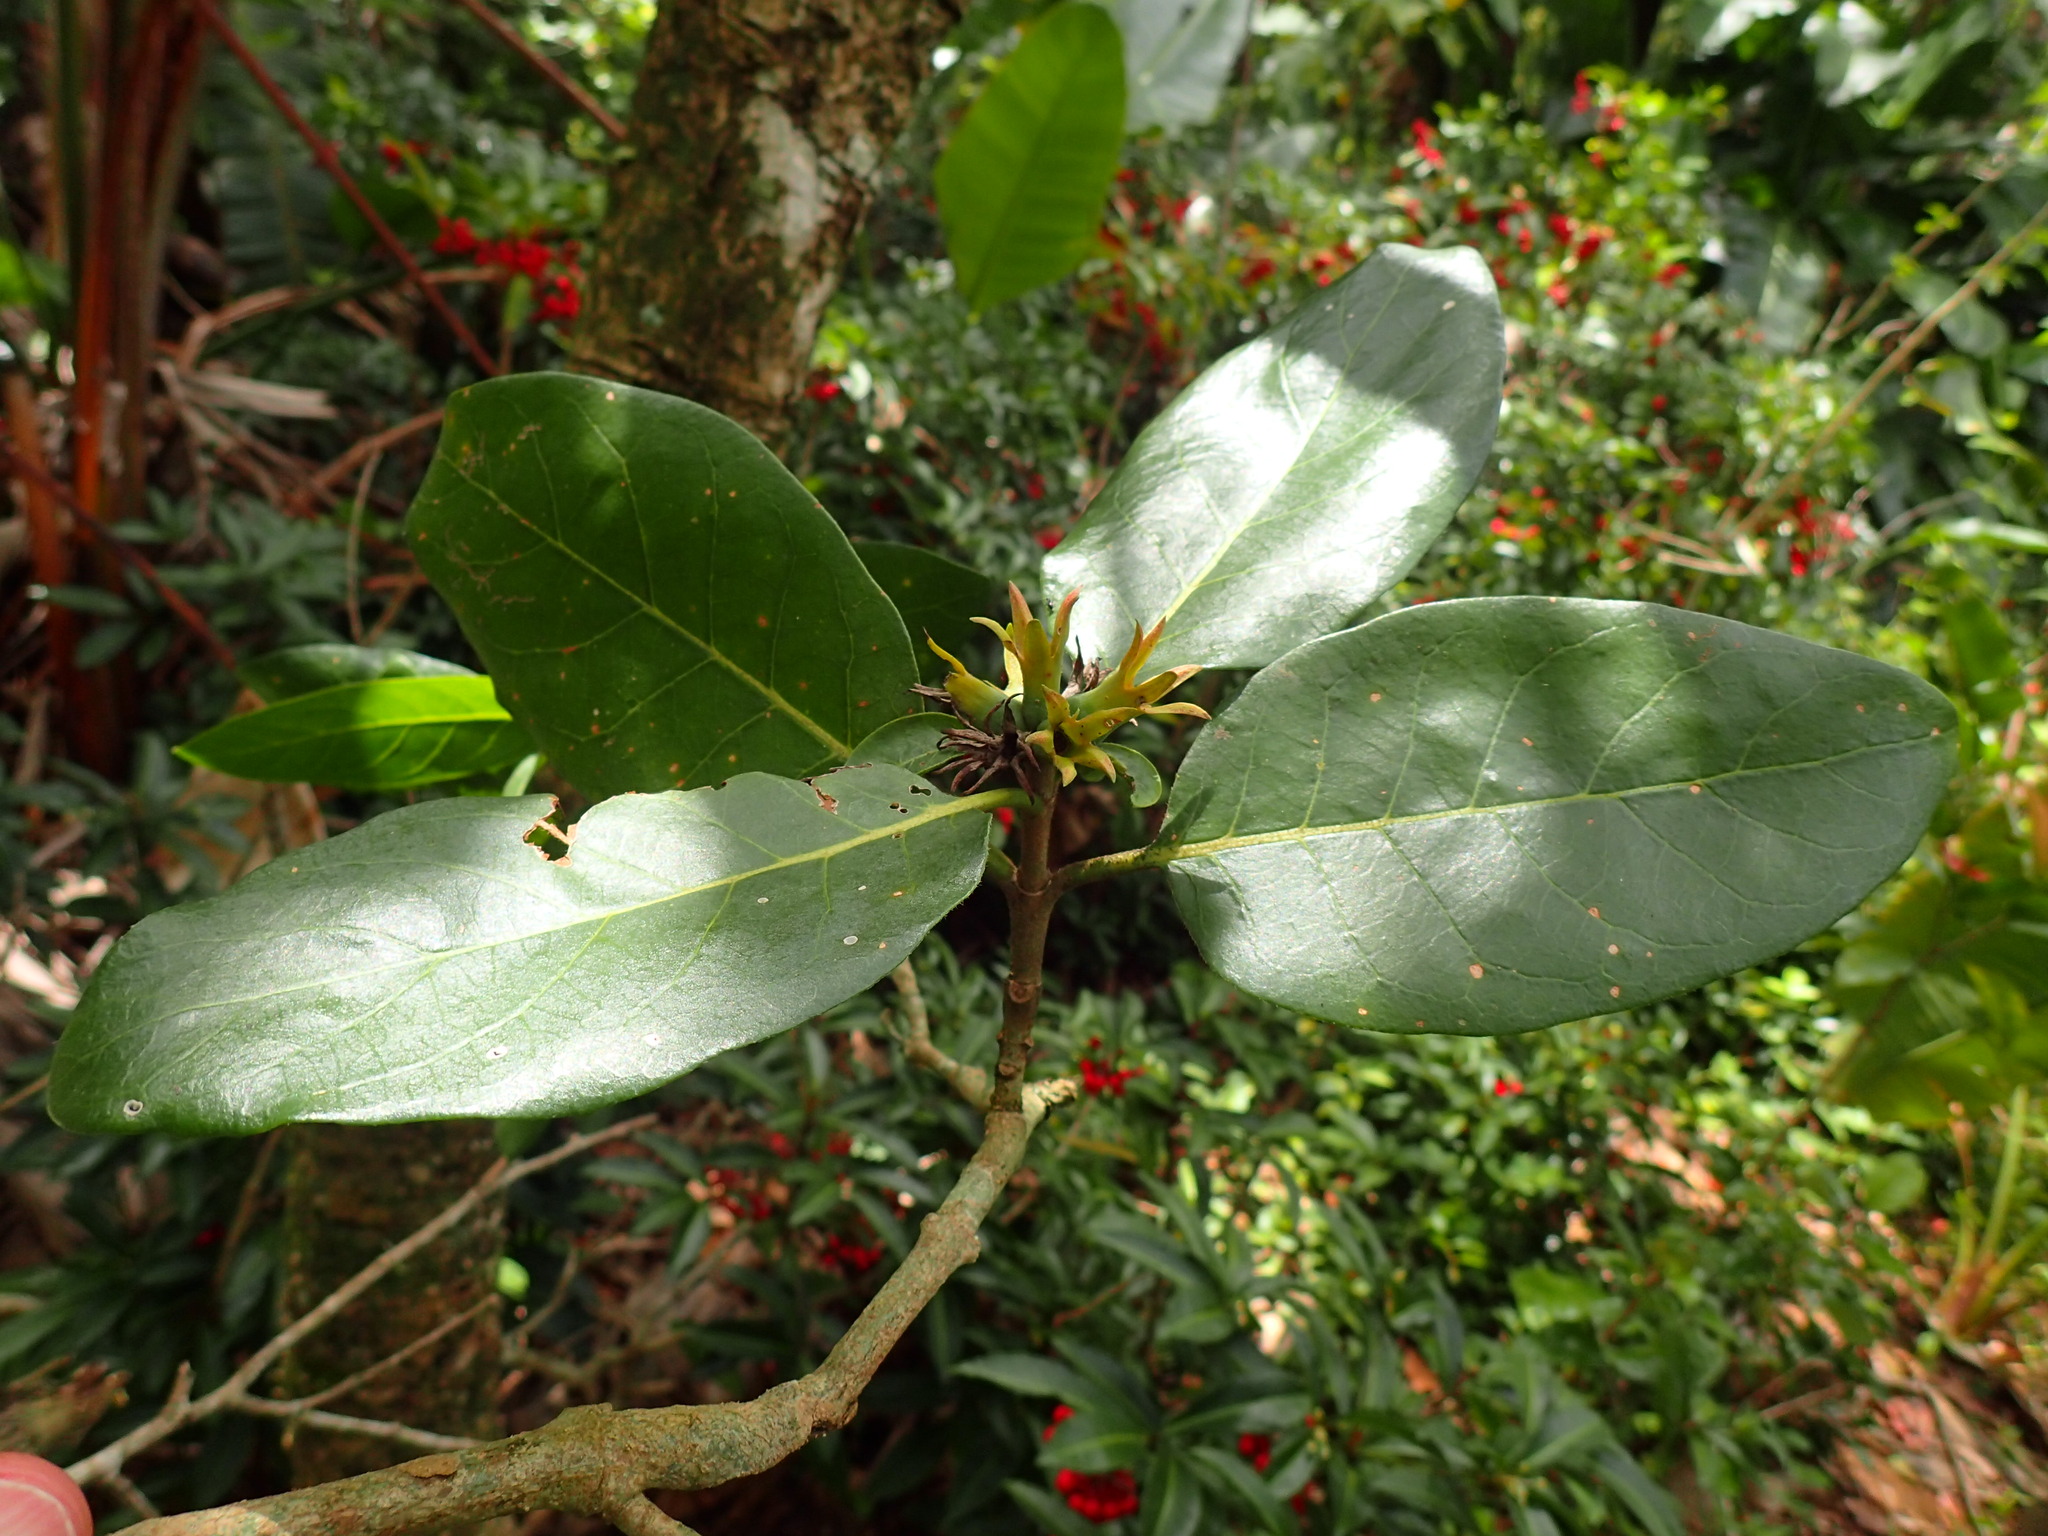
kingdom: Plantae
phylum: Tracheophyta
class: Magnoliopsida
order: Gentianales
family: Rubiaceae
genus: Burchellia
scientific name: Burchellia bubalina
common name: Wild pomegranate
